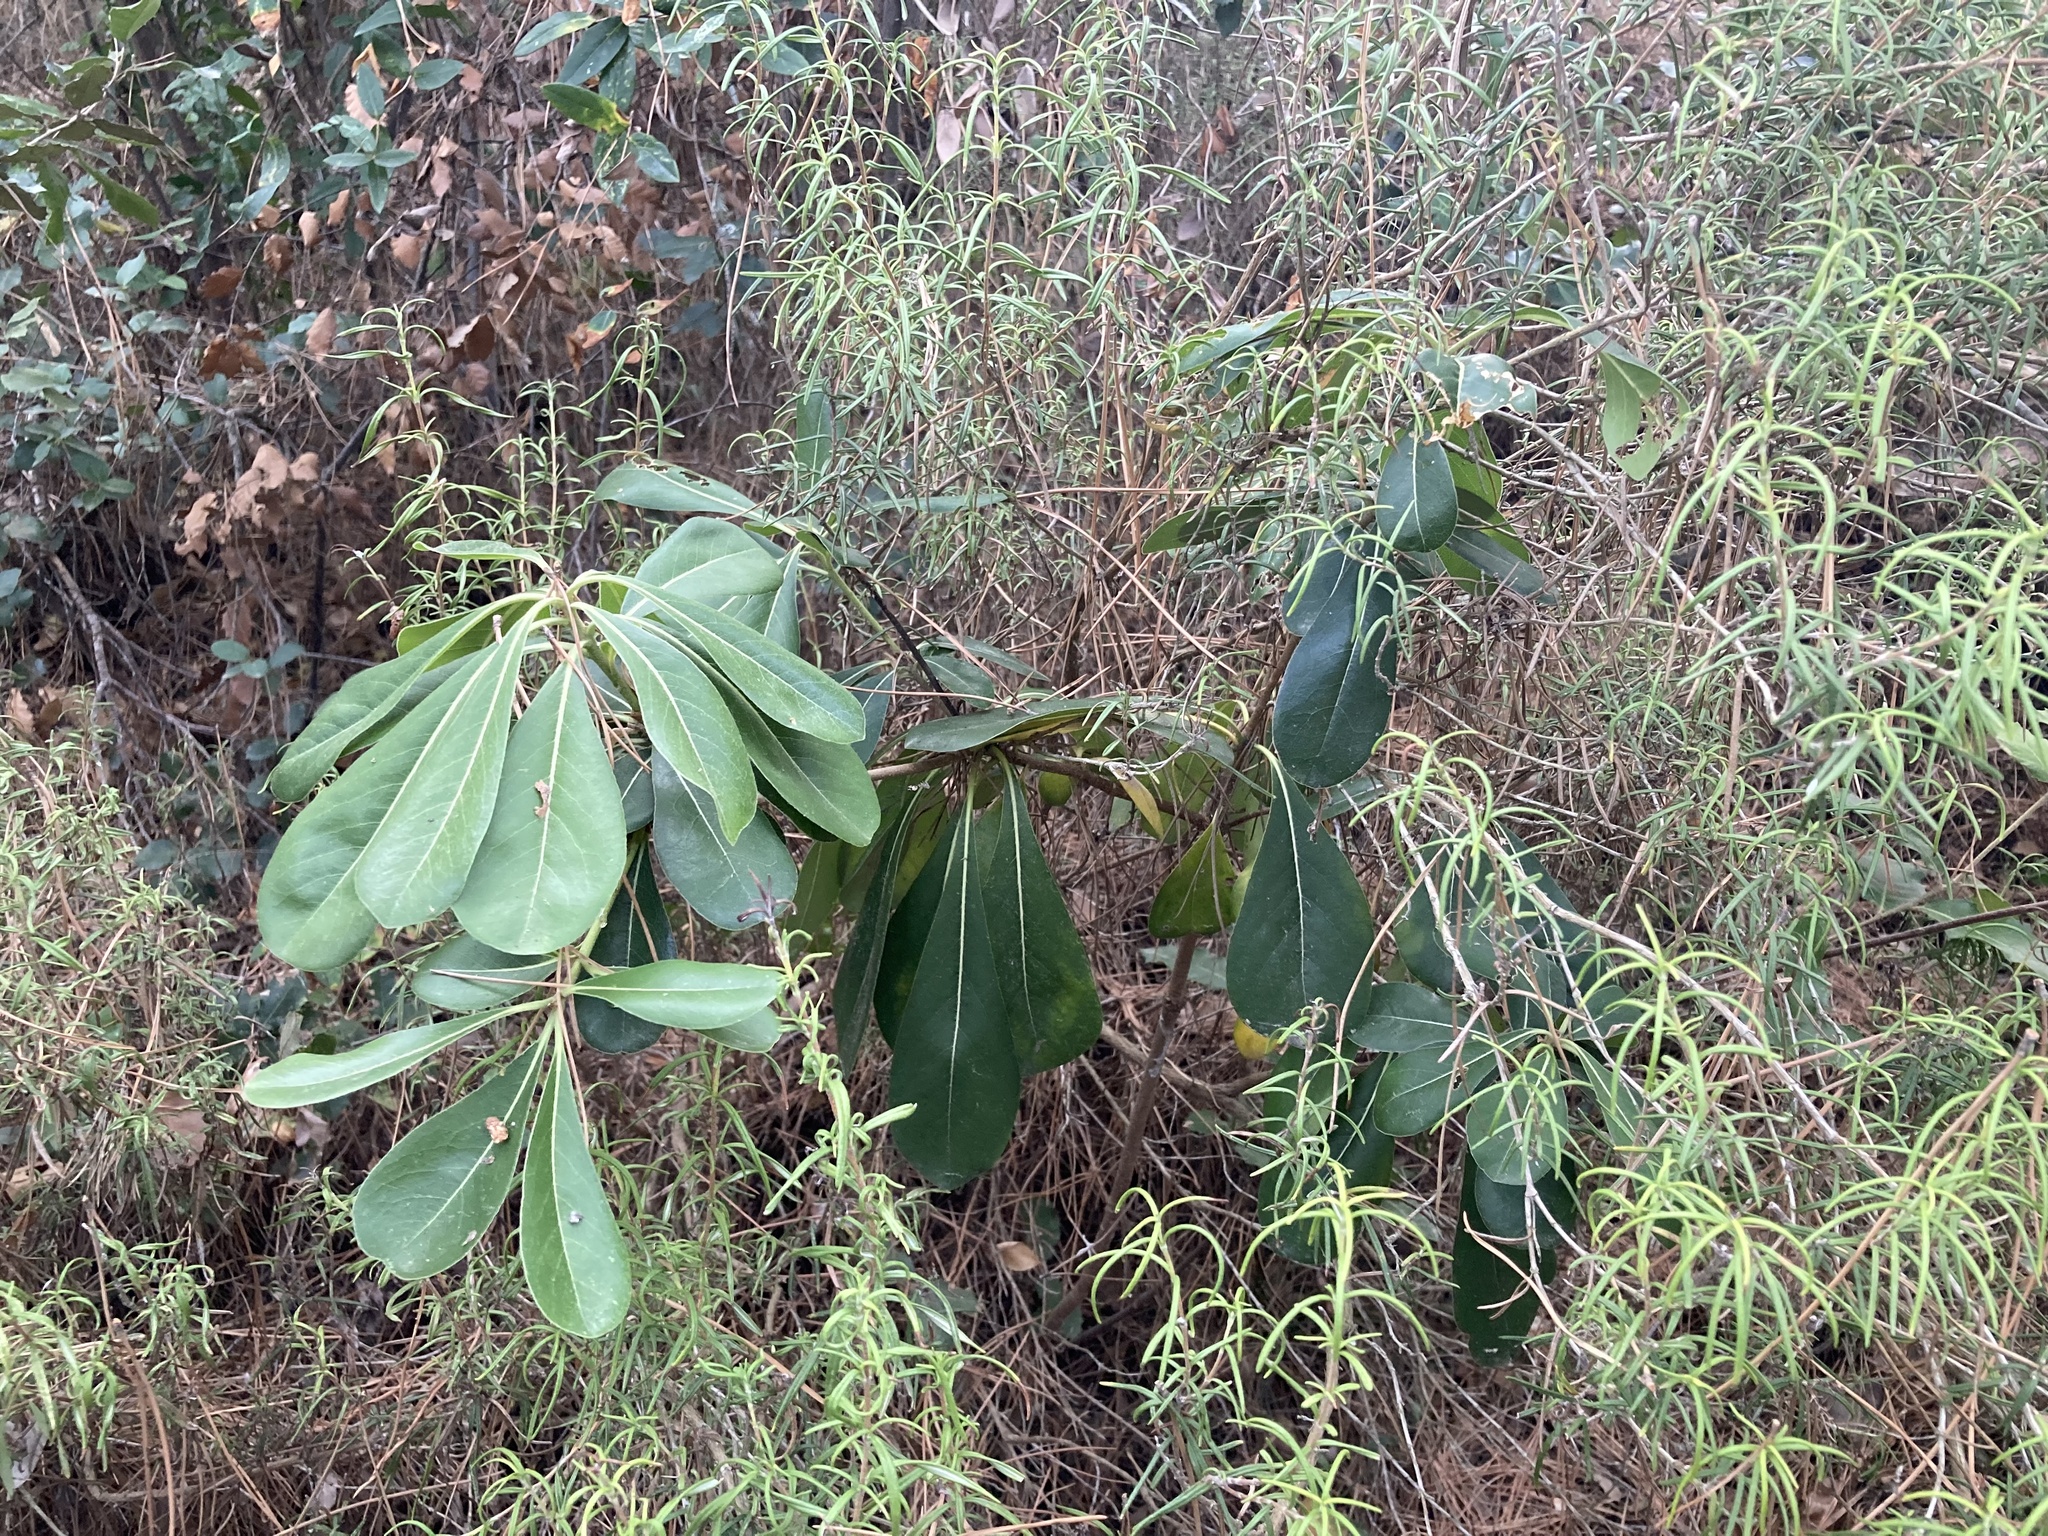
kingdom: Plantae
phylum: Tracheophyta
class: Magnoliopsida
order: Apiales
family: Pittosporaceae
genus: Pittosporum
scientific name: Pittosporum tobira
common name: Japanese cheesewood
